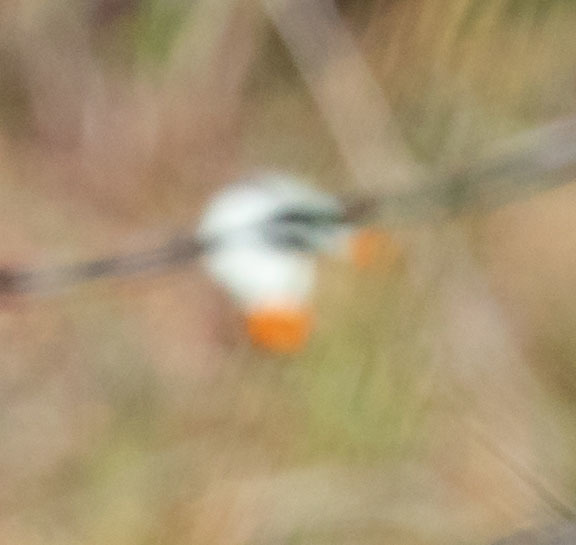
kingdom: Animalia
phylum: Arthropoda
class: Insecta
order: Lepidoptera
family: Pieridae
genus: Anthocharis
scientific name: Anthocharis sara
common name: Sara's orangetip
